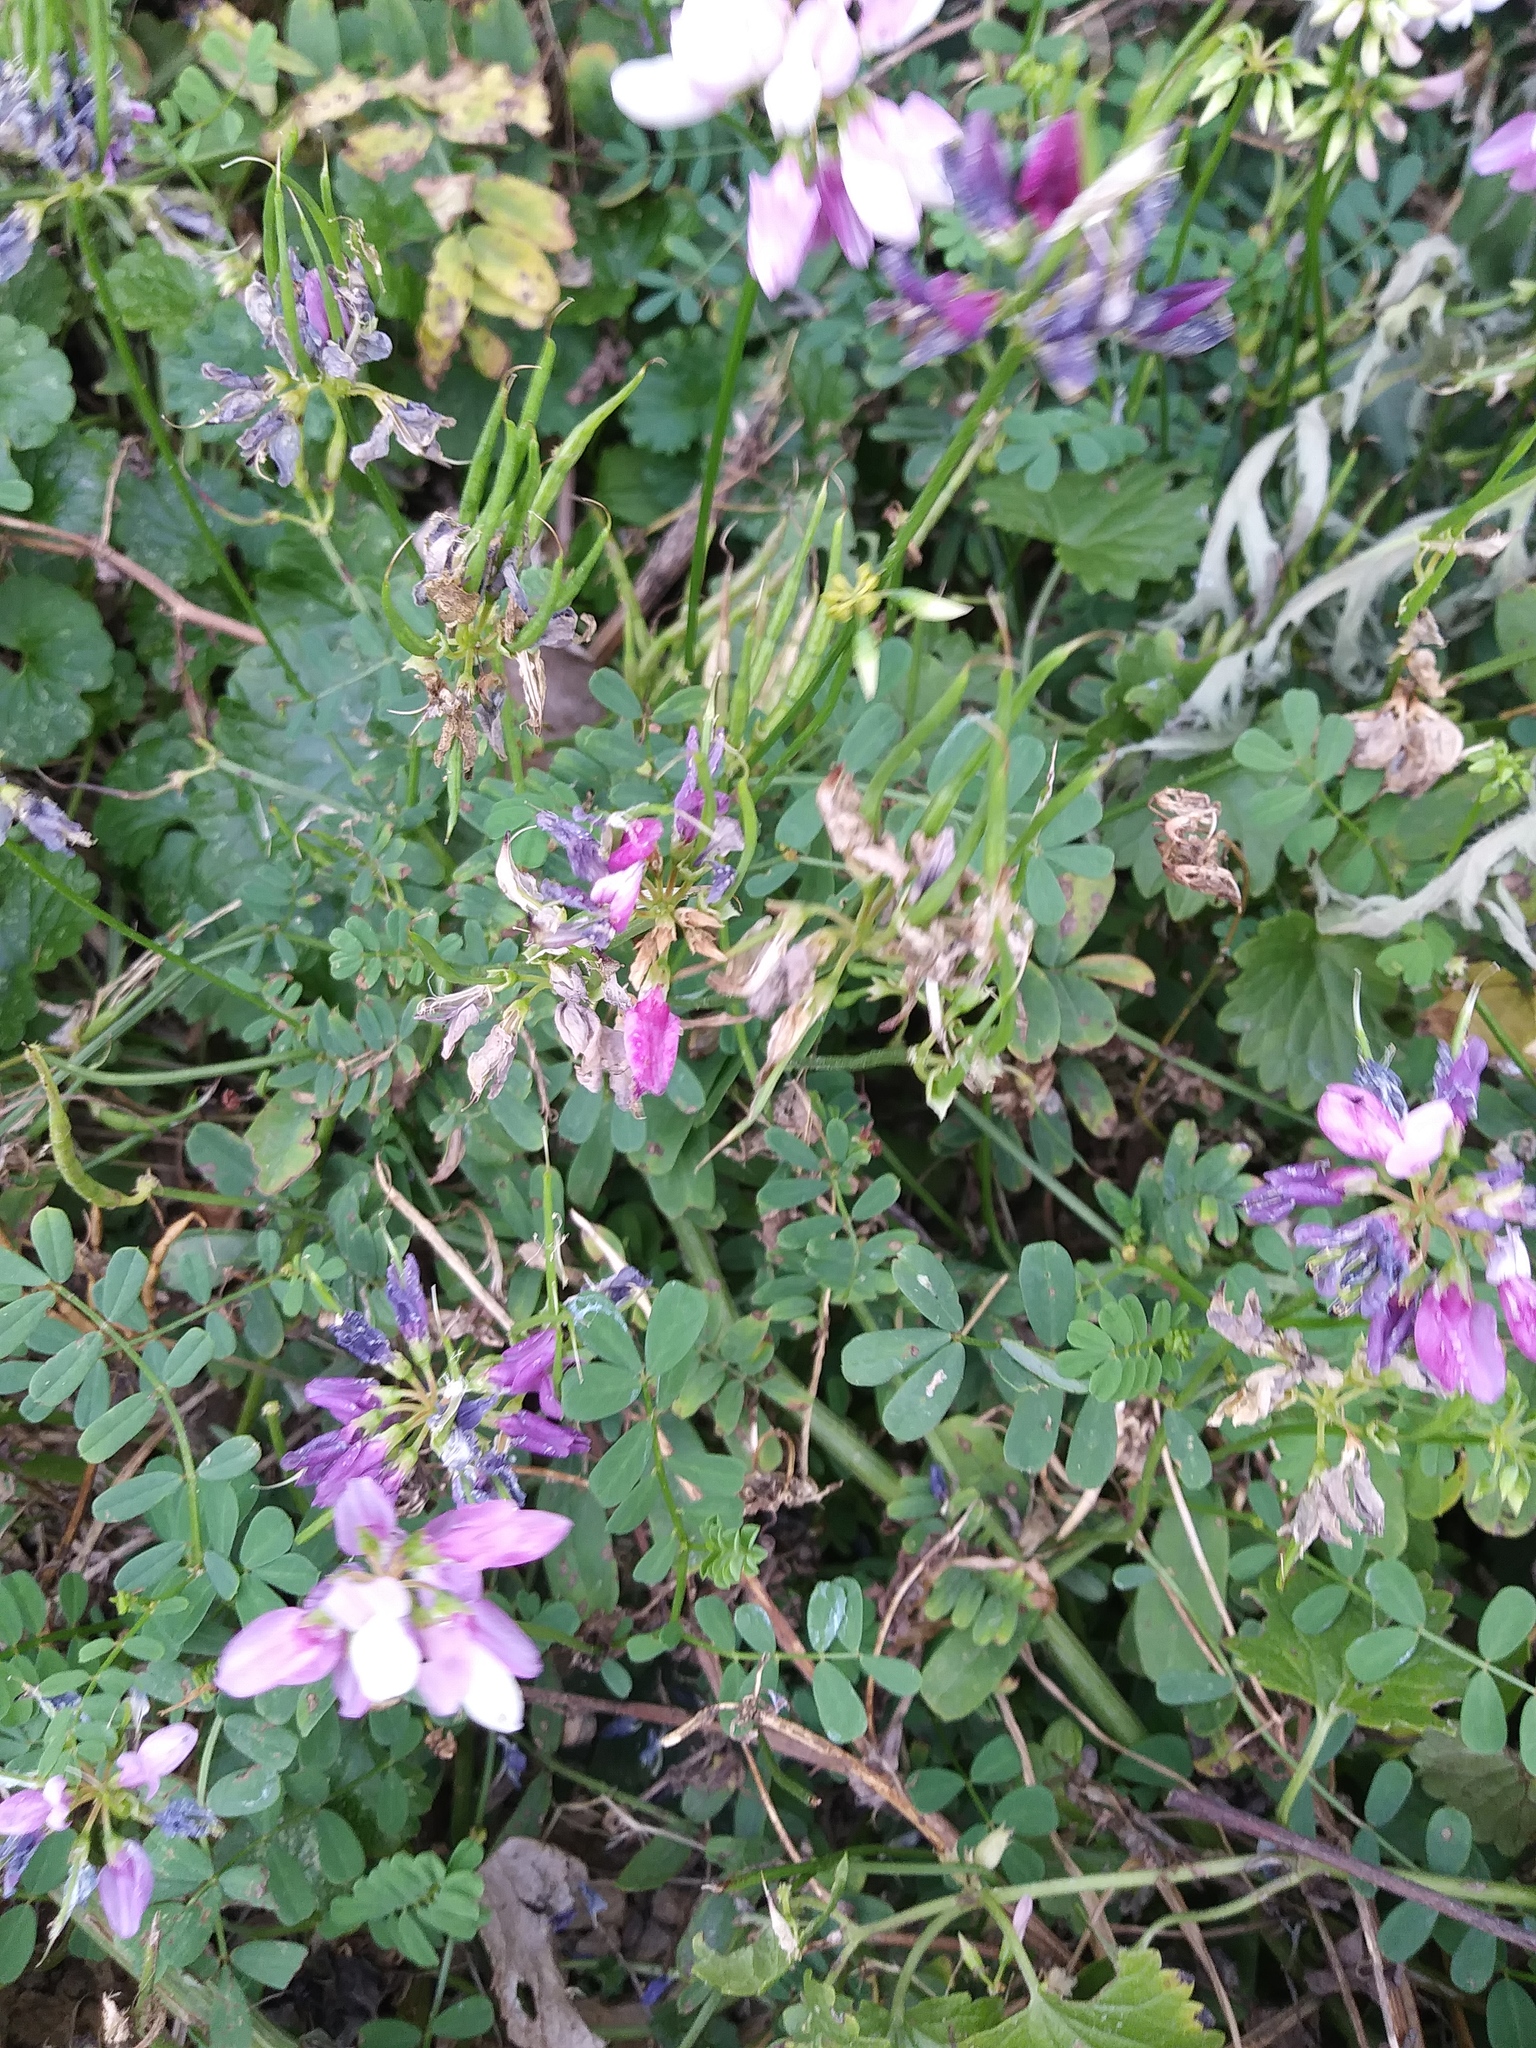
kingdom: Plantae
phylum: Tracheophyta
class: Magnoliopsida
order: Fabales
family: Fabaceae
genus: Coronilla
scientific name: Coronilla varia
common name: Crownvetch
